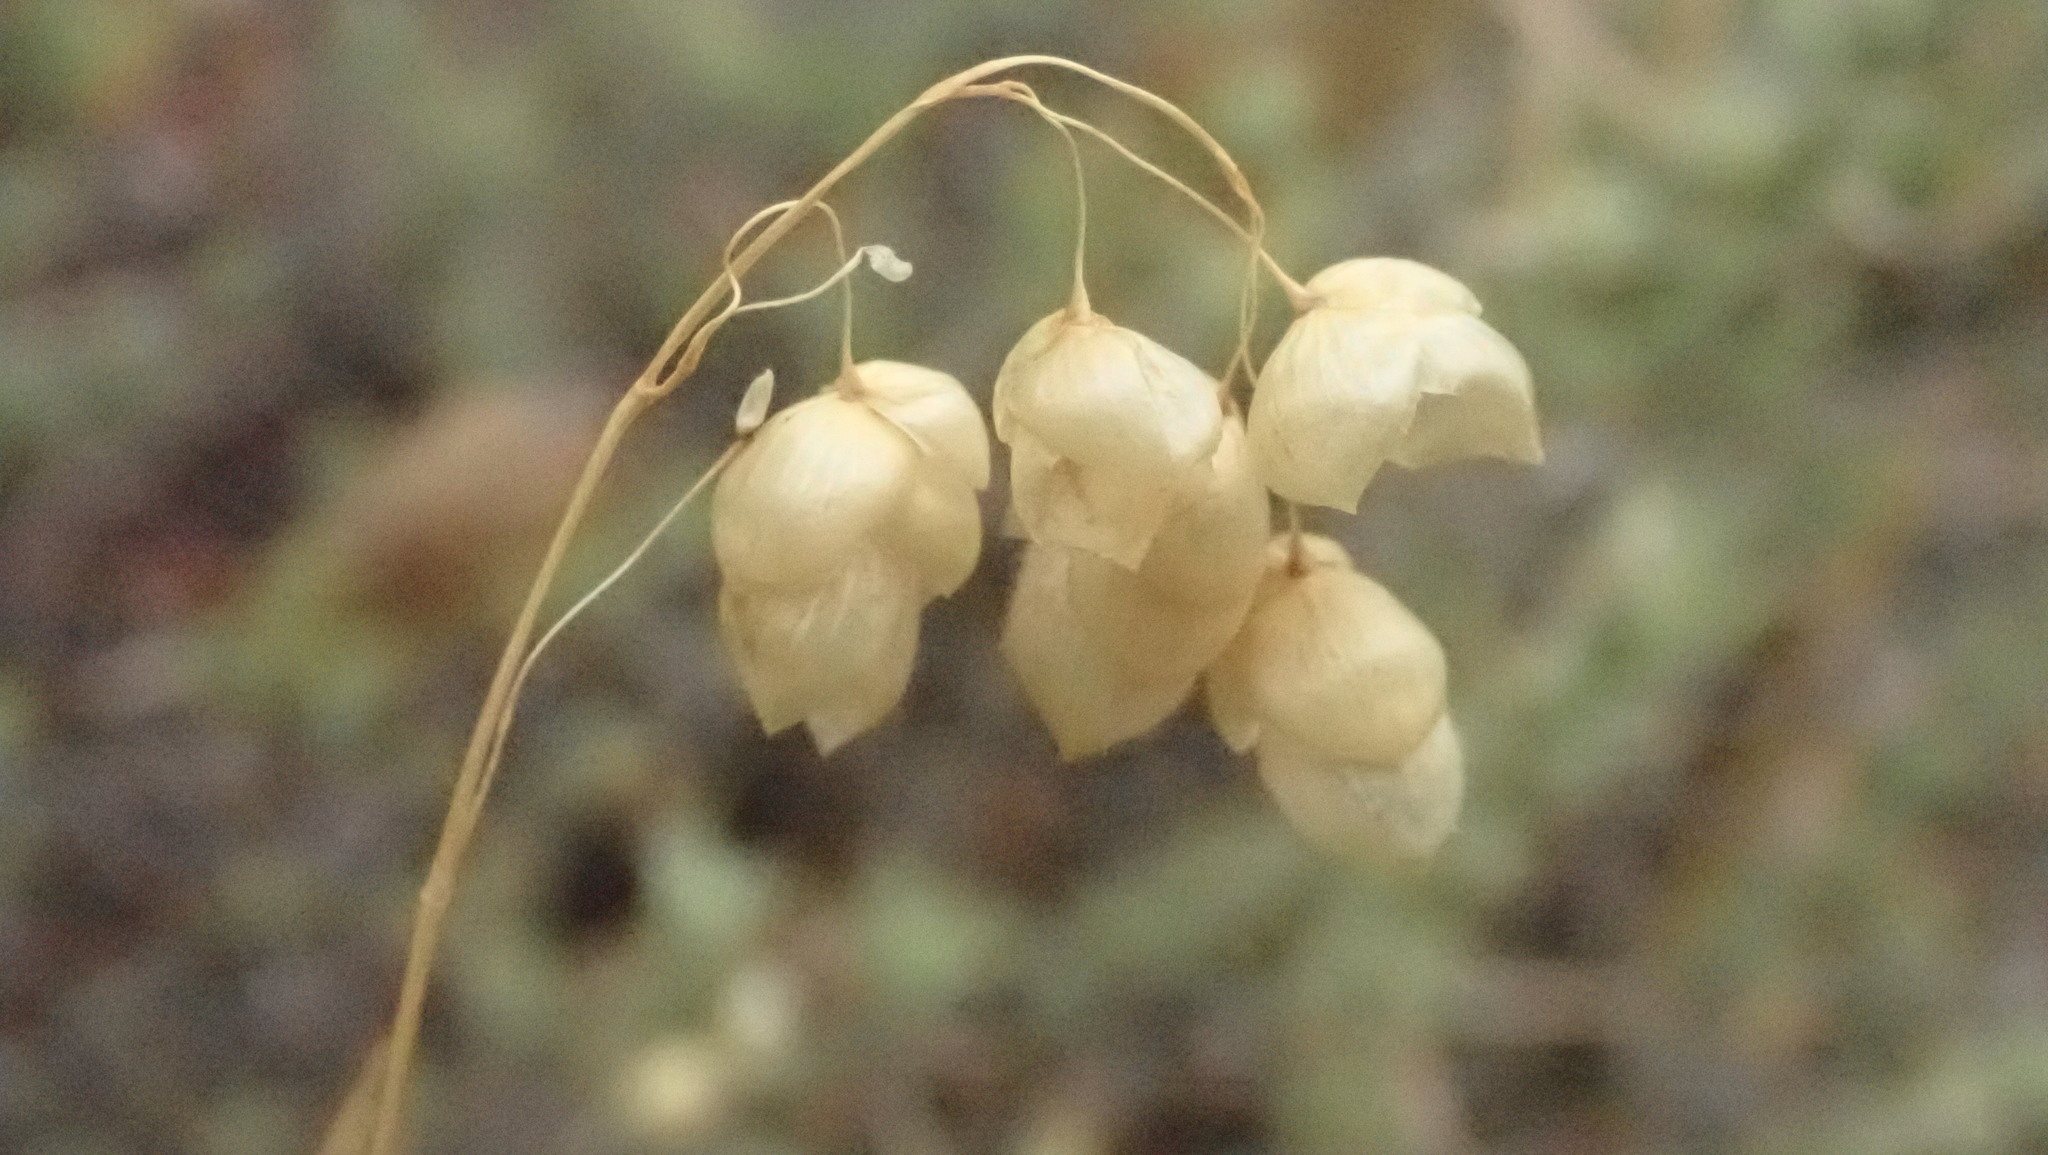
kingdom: Plantae
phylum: Tracheophyta
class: Liliopsida
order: Poales
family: Poaceae
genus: Briza
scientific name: Briza maxima
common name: Big quakinggrass
